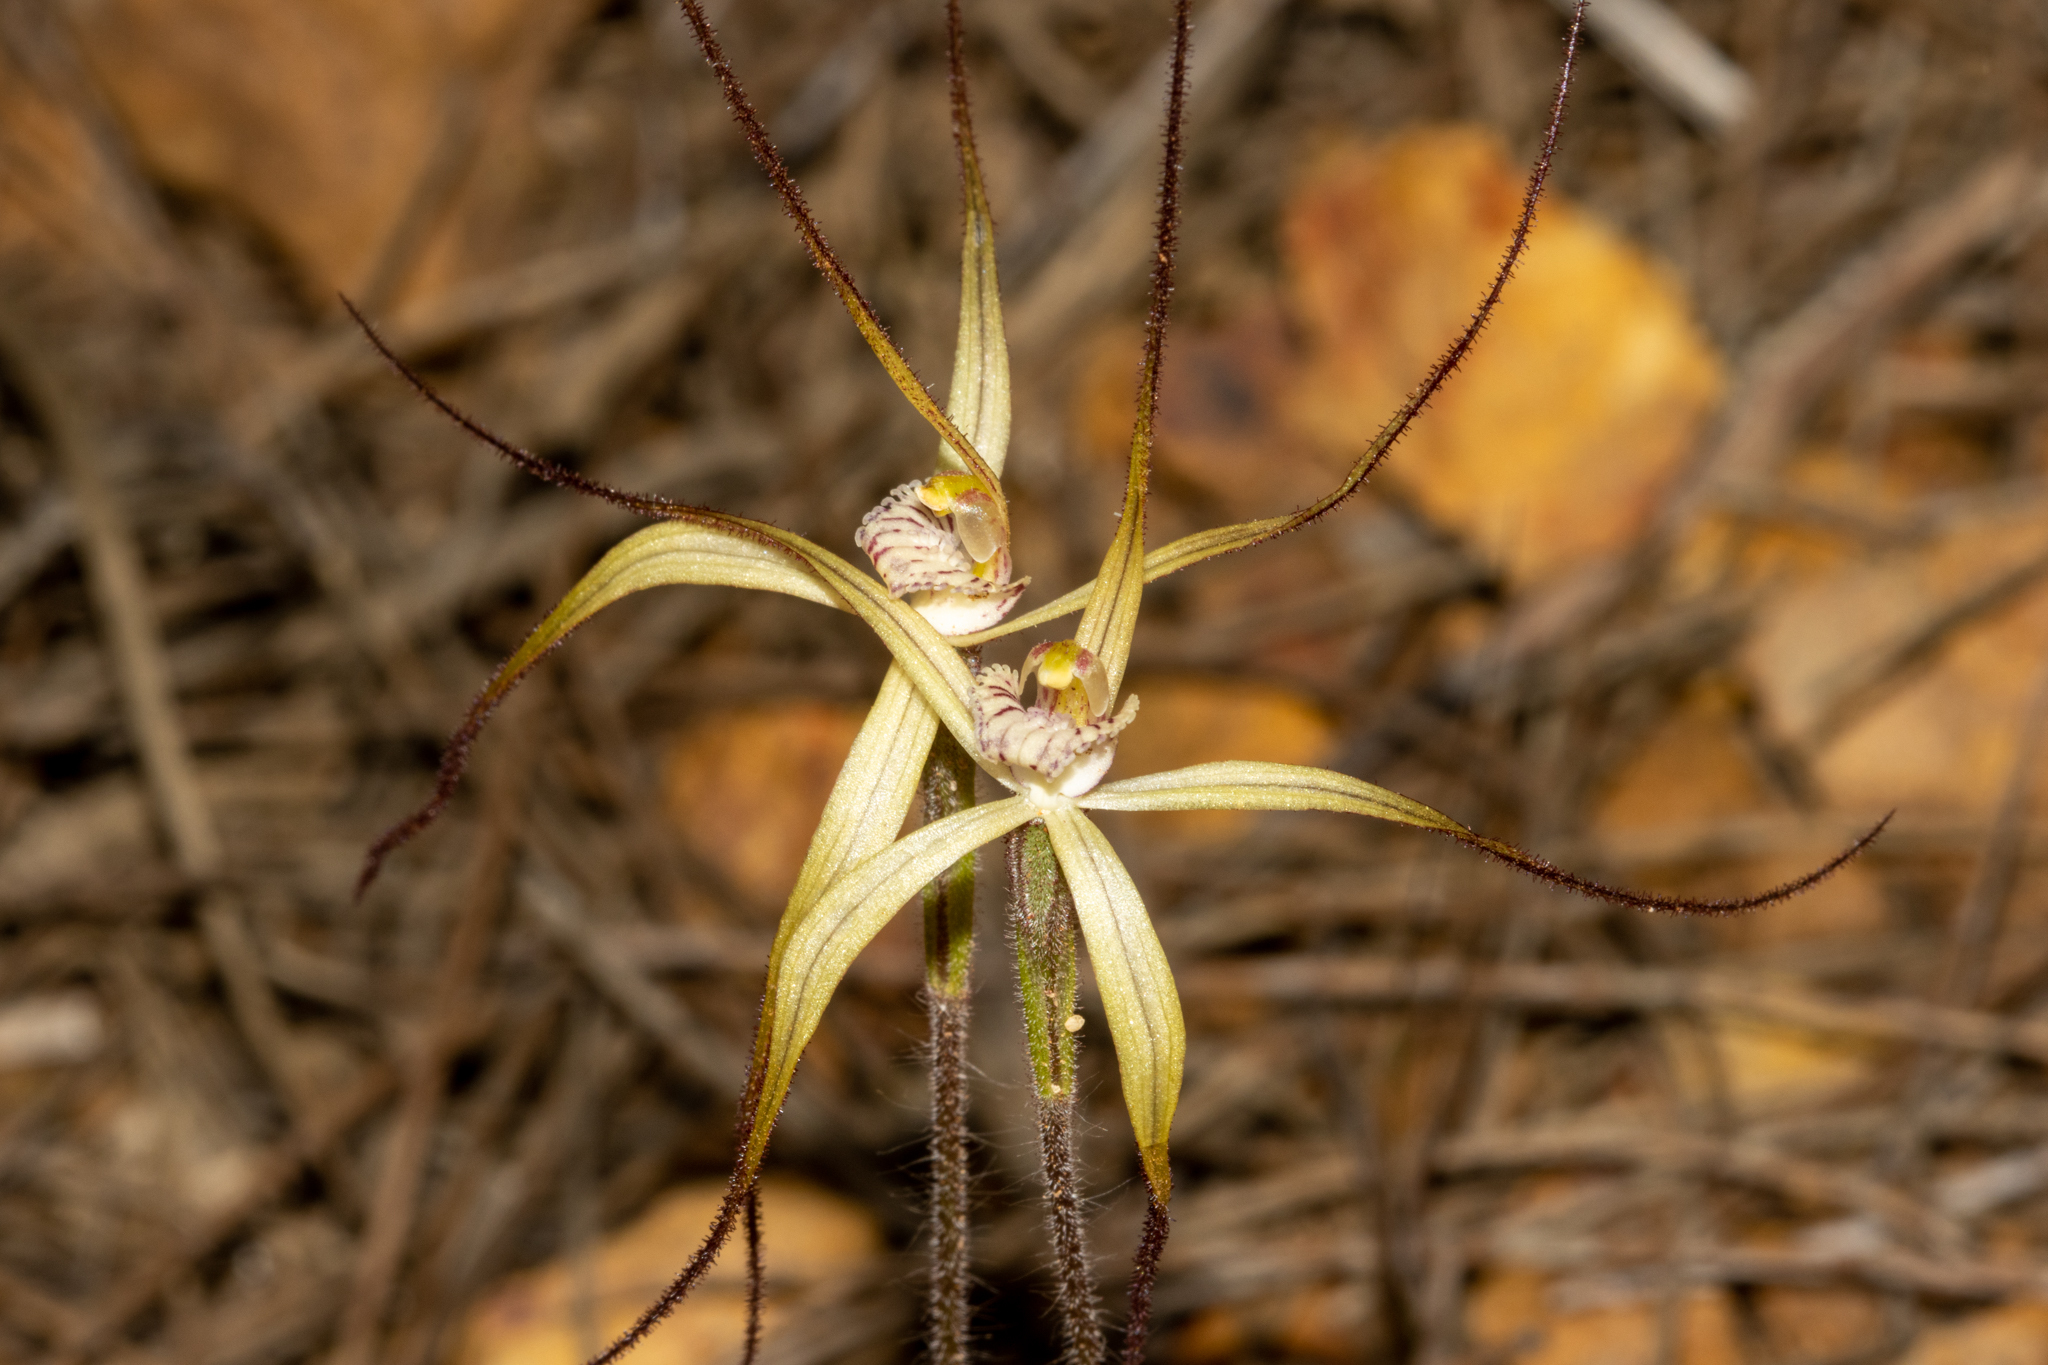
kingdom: Plantae
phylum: Tracheophyta
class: Liliopsida
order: Asparagales
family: Orchidaceae
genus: Caladenia
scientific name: Caladenia horistes
